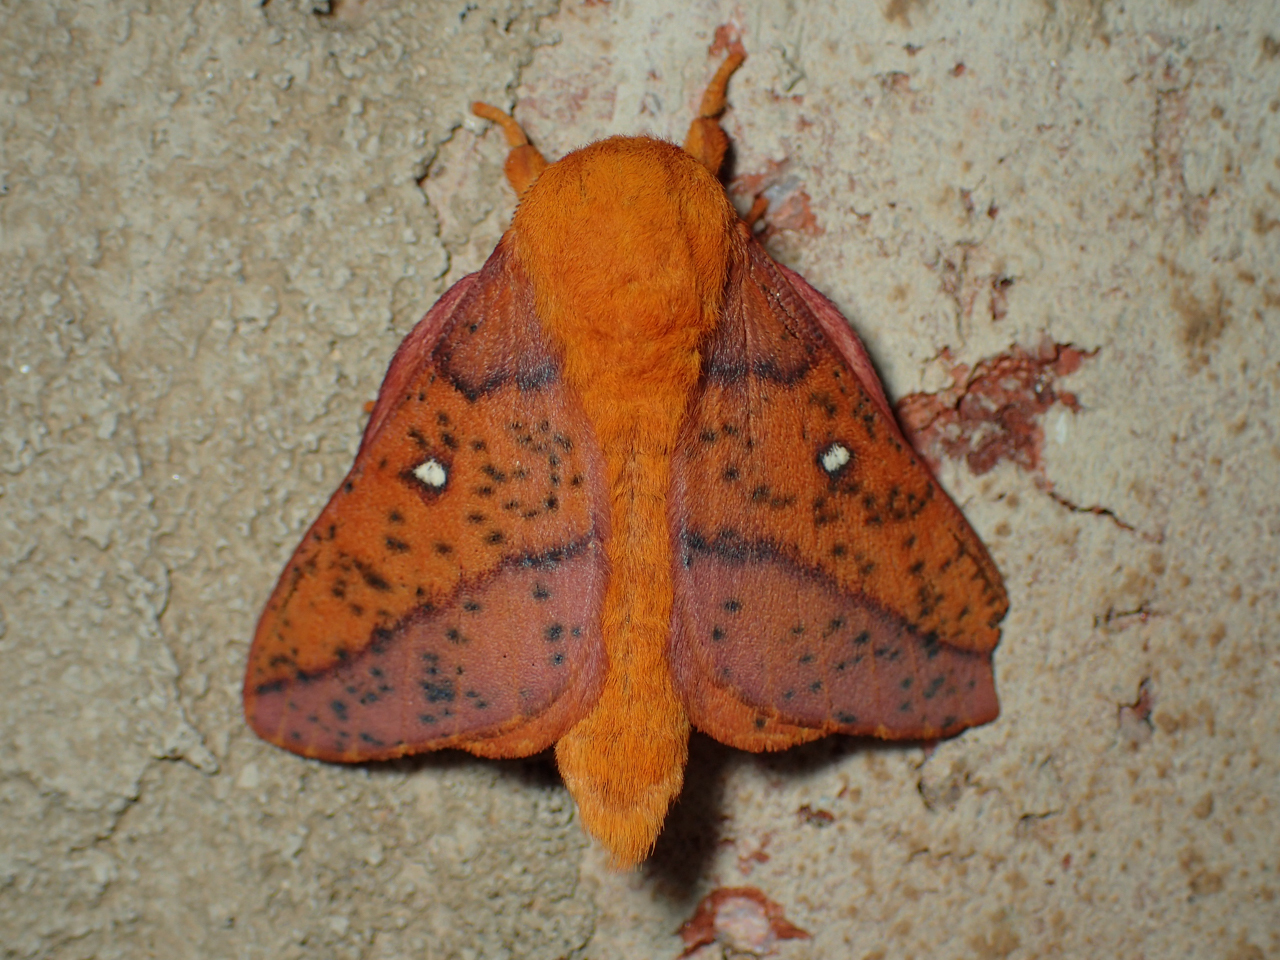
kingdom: Animalia
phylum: Arthropoda
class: Insecta
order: Lepidoptera
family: Saturniidae
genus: Anisota
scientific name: Anisota stigma
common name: Spiny oakworm moth
